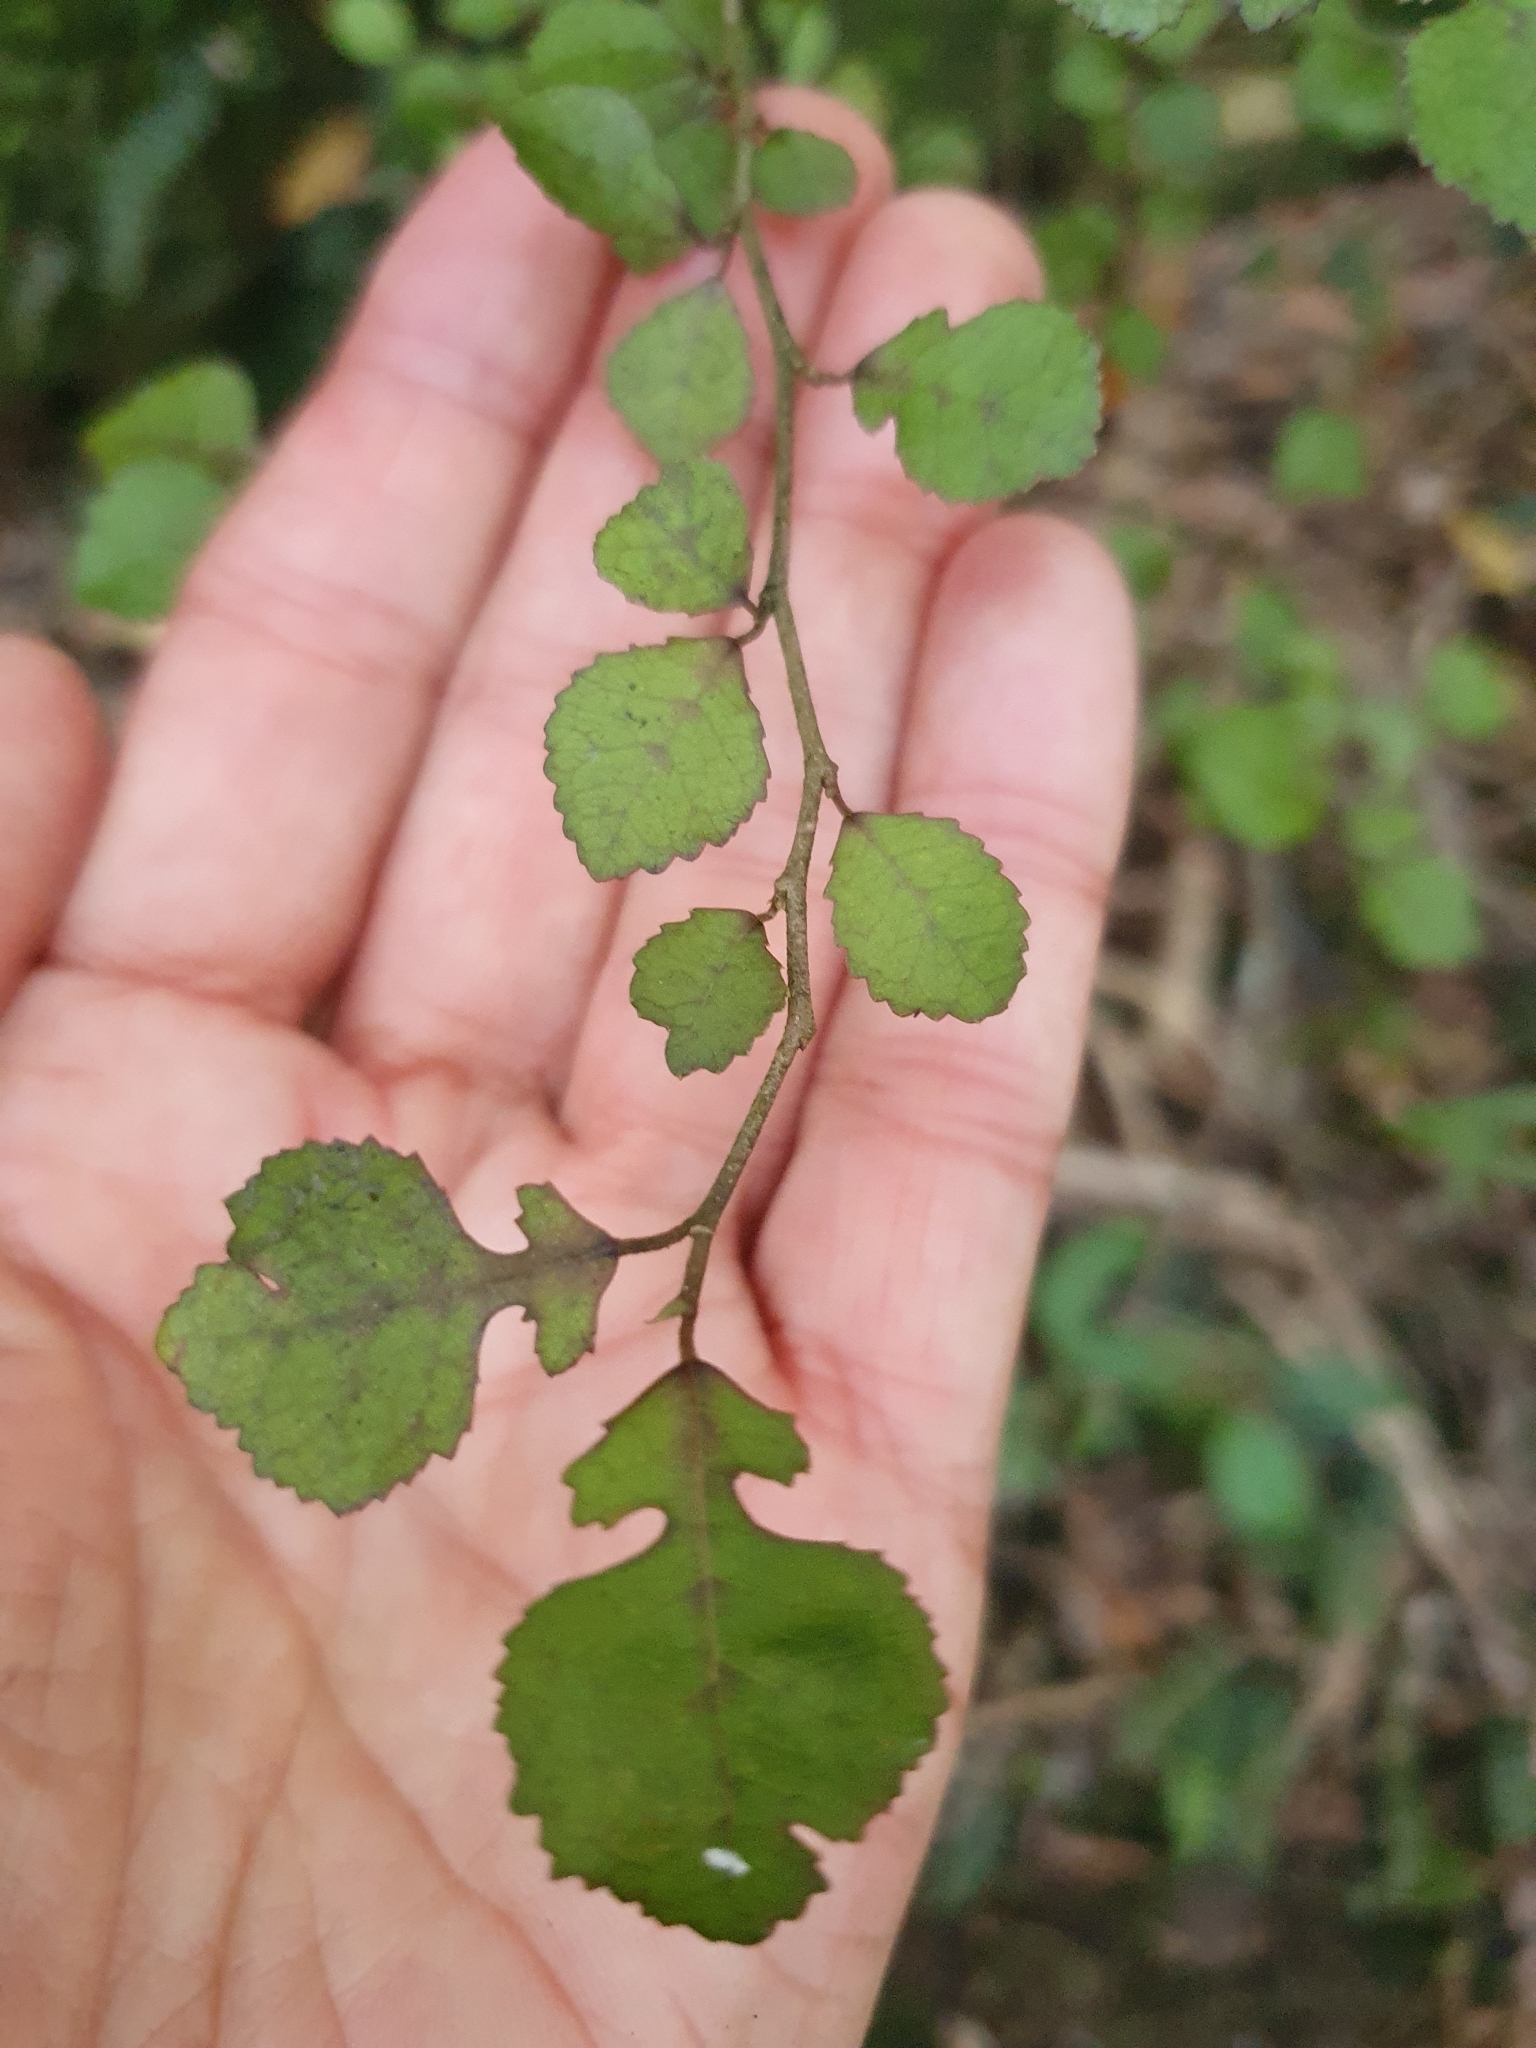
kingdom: Plantae
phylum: Tracheophyta
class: Magnoliopsida
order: Rosales
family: Moraceae
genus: Paratrophis
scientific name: Paratrophis microphylla
